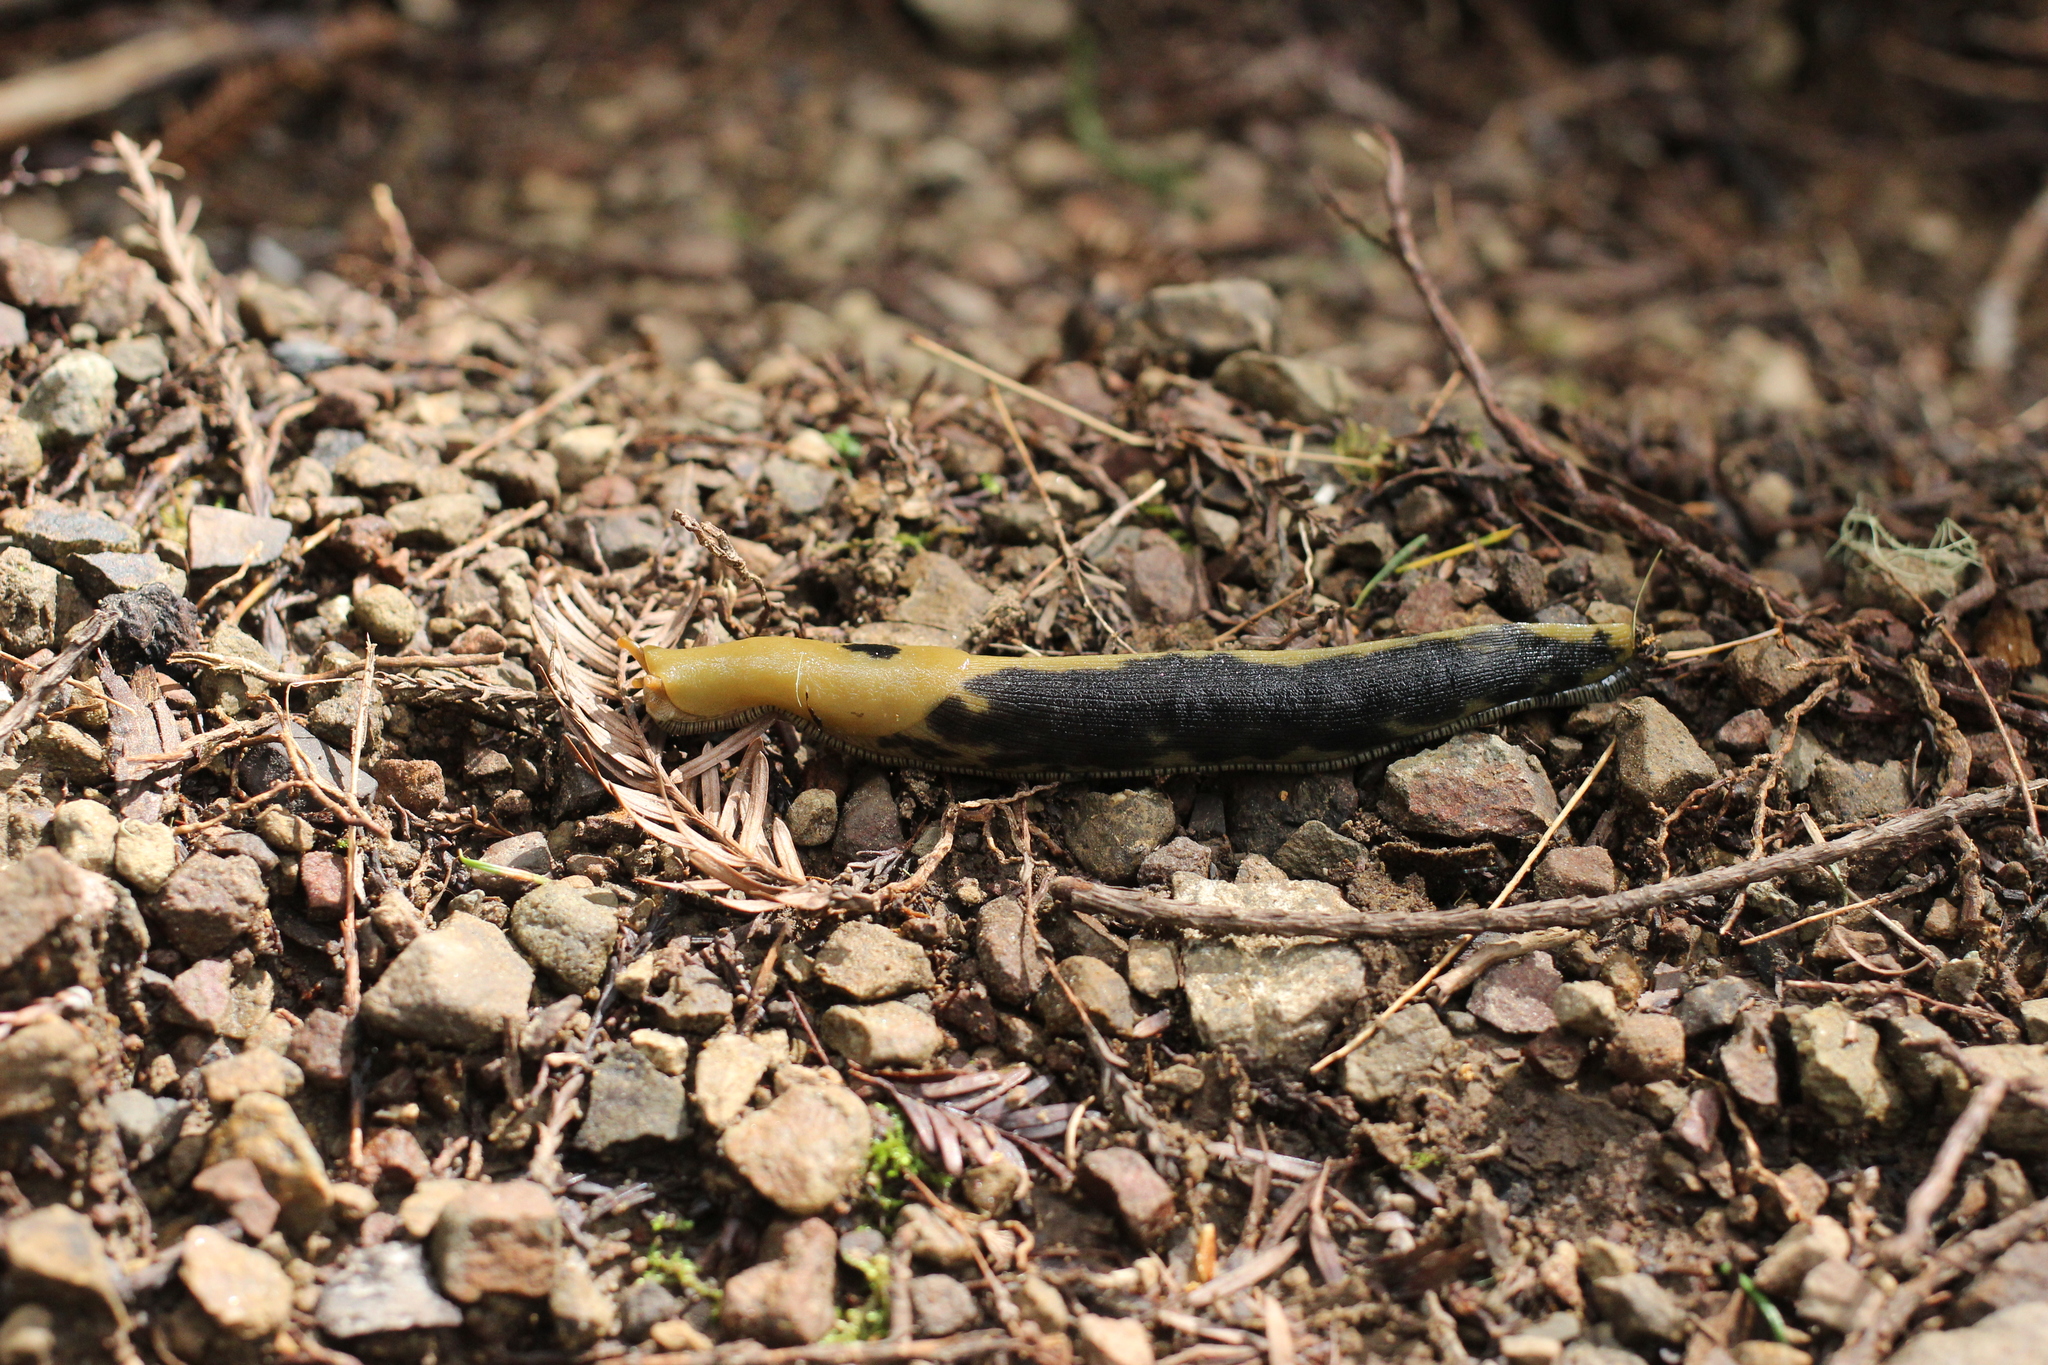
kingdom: Animalia
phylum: Mollusca
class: Gastropoda
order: Stylommatophora
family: Ariolimacidae
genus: Ariolimax
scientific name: Ariolimax buttoni
